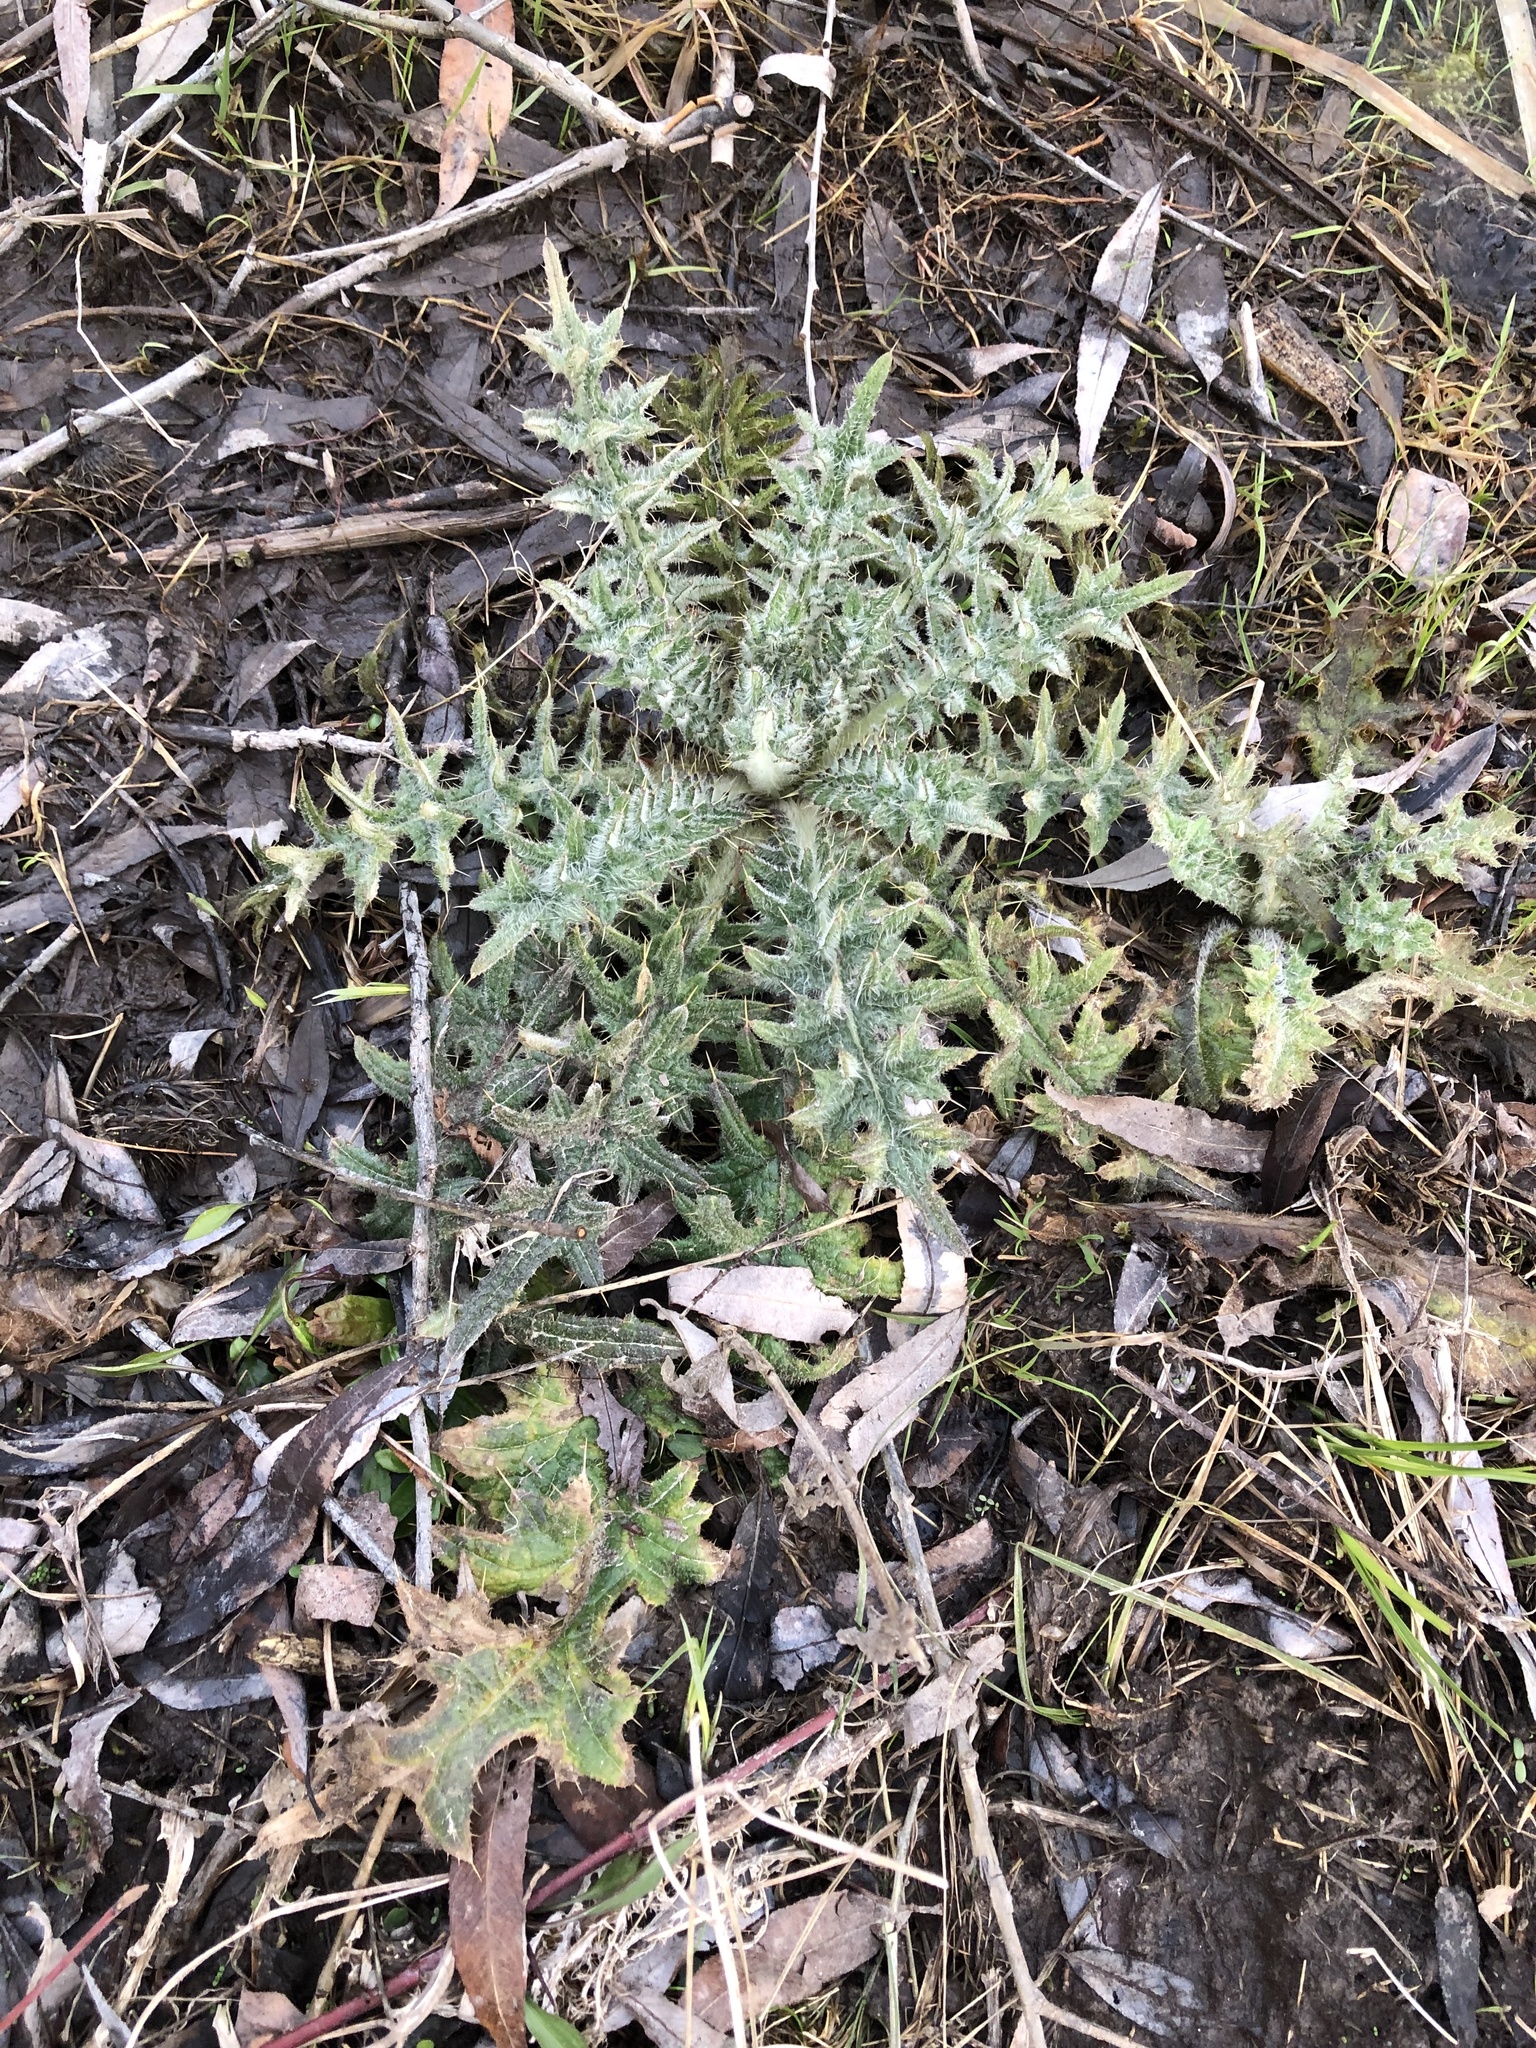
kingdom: Plantae
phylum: Tracheophyta
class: Magnoliopsida
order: Asterales
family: Asteraceae
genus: Cirsium
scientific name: Cirsium vulgare
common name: Bull thistle
